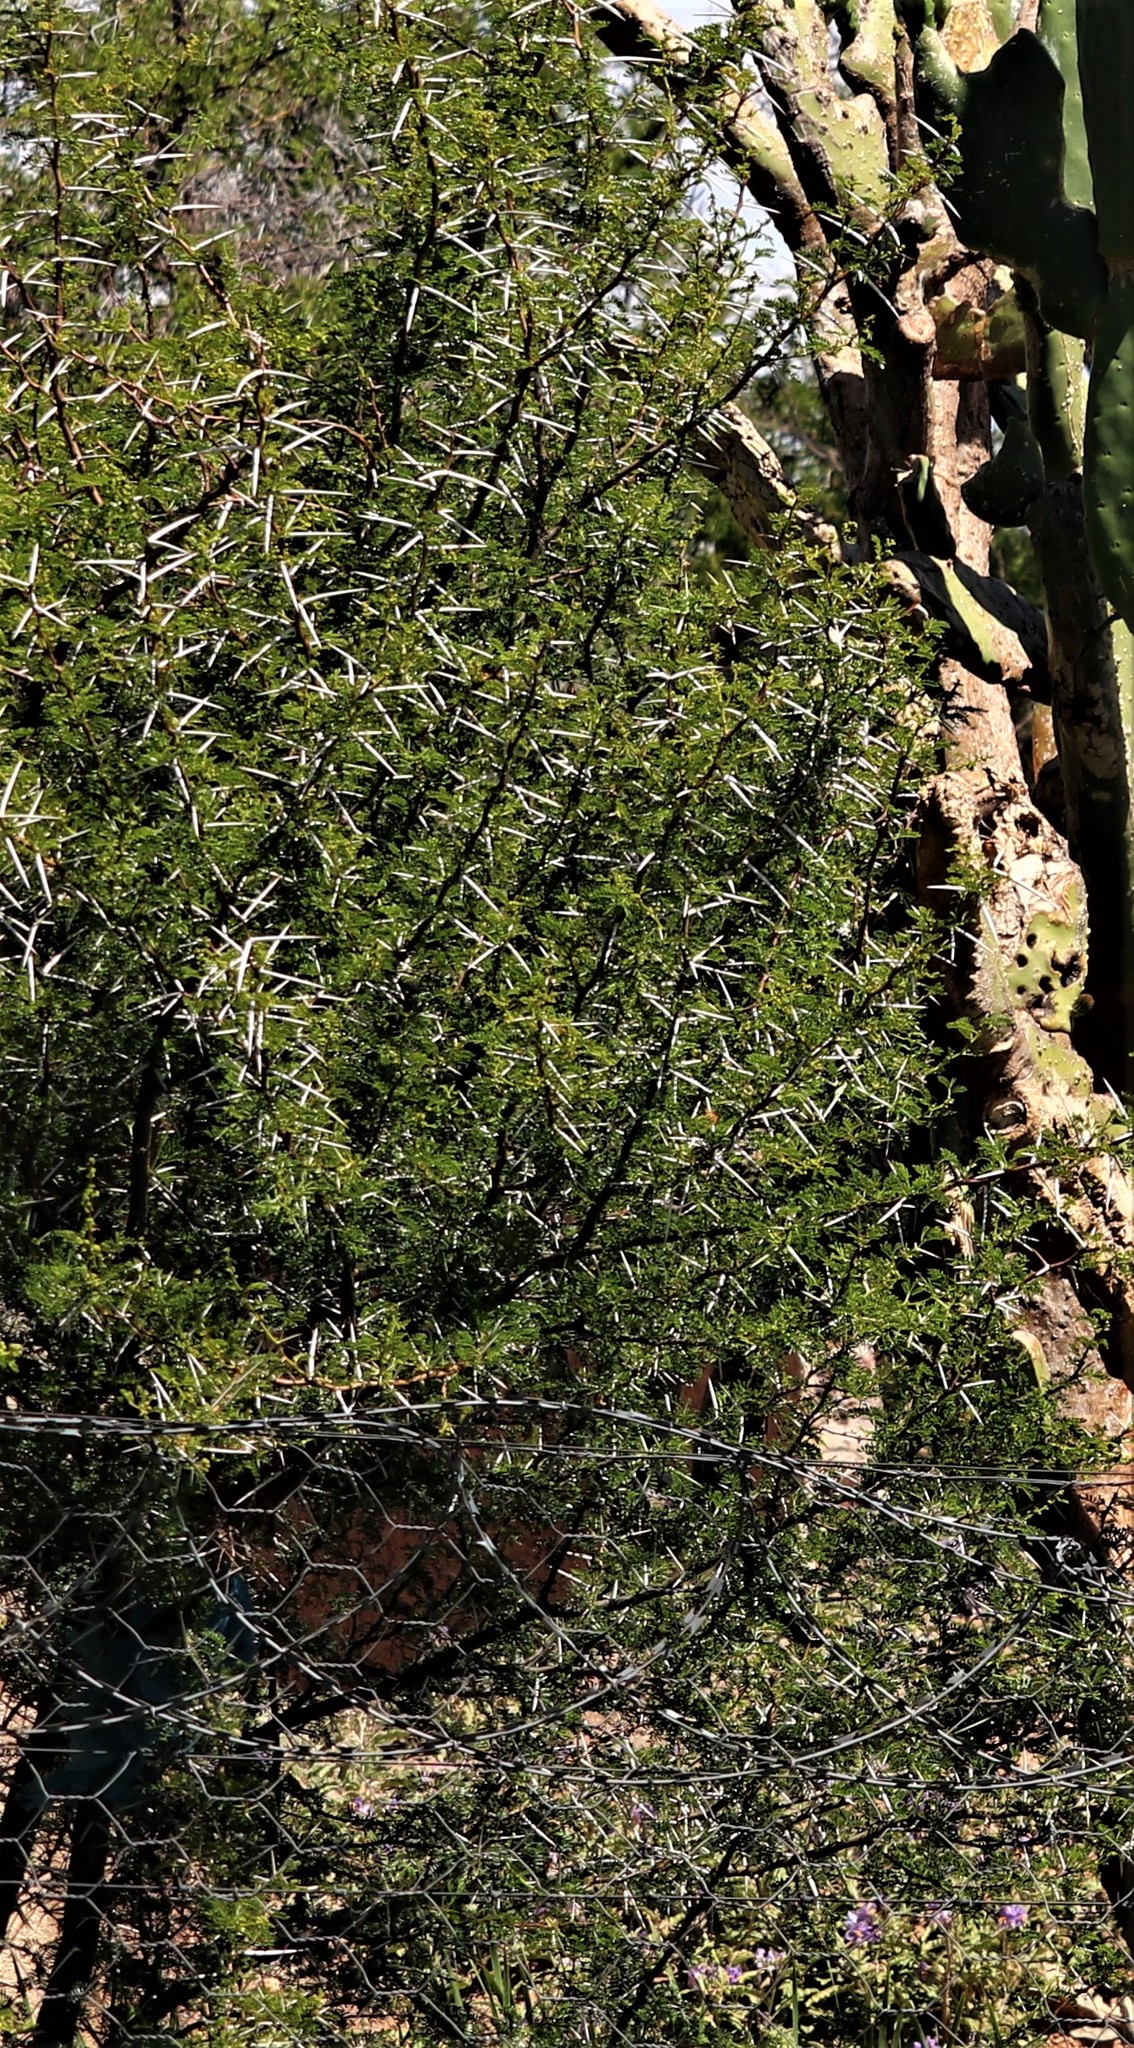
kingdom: Plantae
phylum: Tracheophyta
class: Magnoliopsida
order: Fabales
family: Fabaceae
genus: Vachellia
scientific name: Vachellia karroo
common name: Sweet thorn
